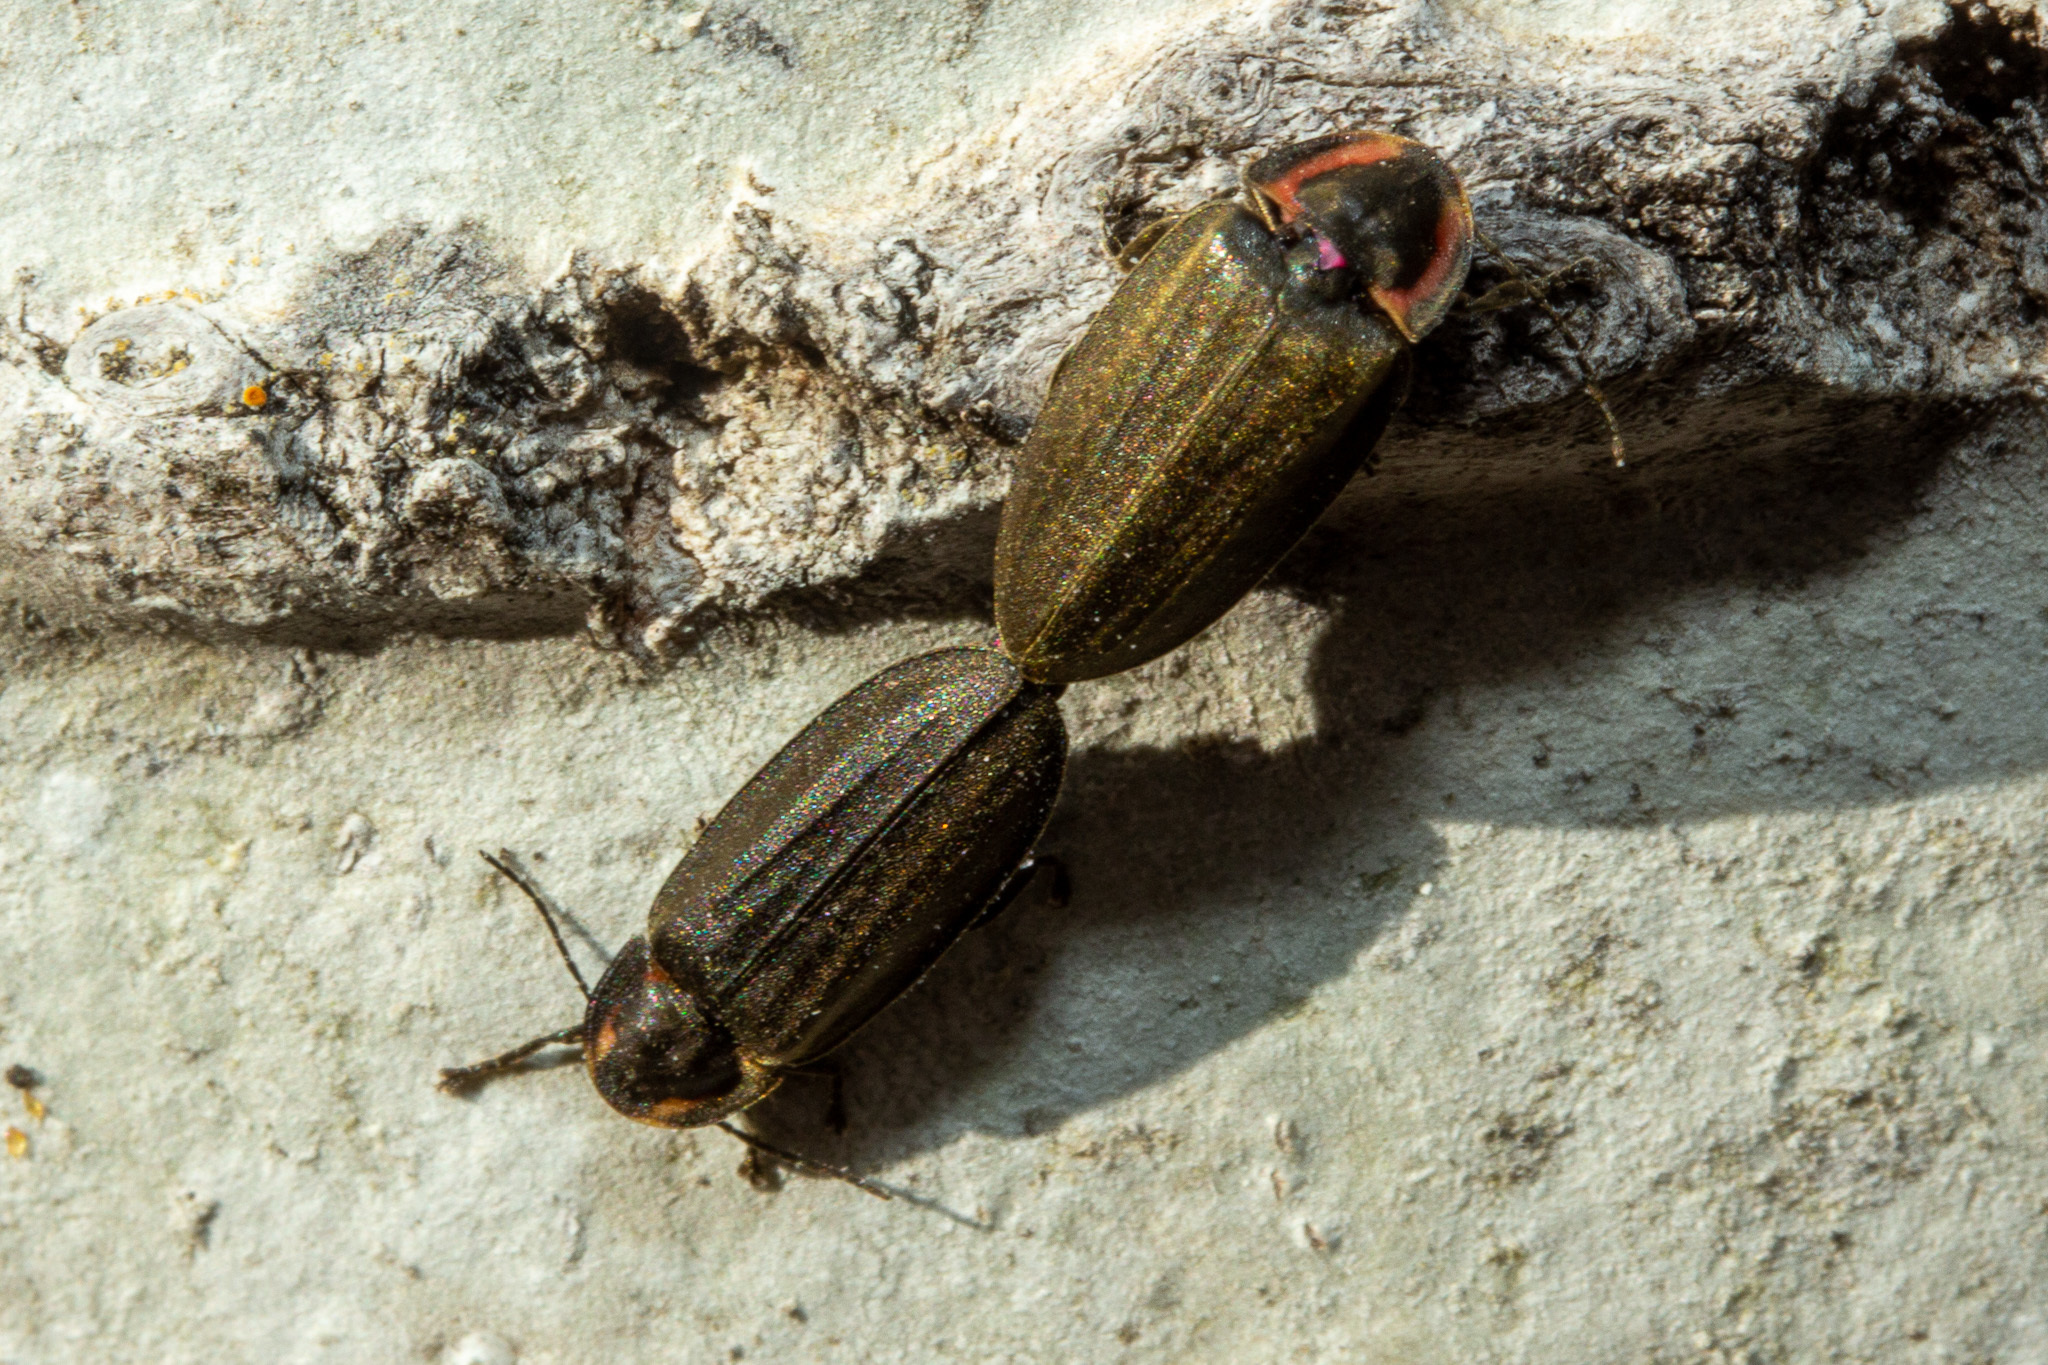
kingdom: Animalia
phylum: Arthropoda
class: Insecta
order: Coleoptera
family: Lampyridae
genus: Photinus
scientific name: Photinus corrusca
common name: Winter firefly
